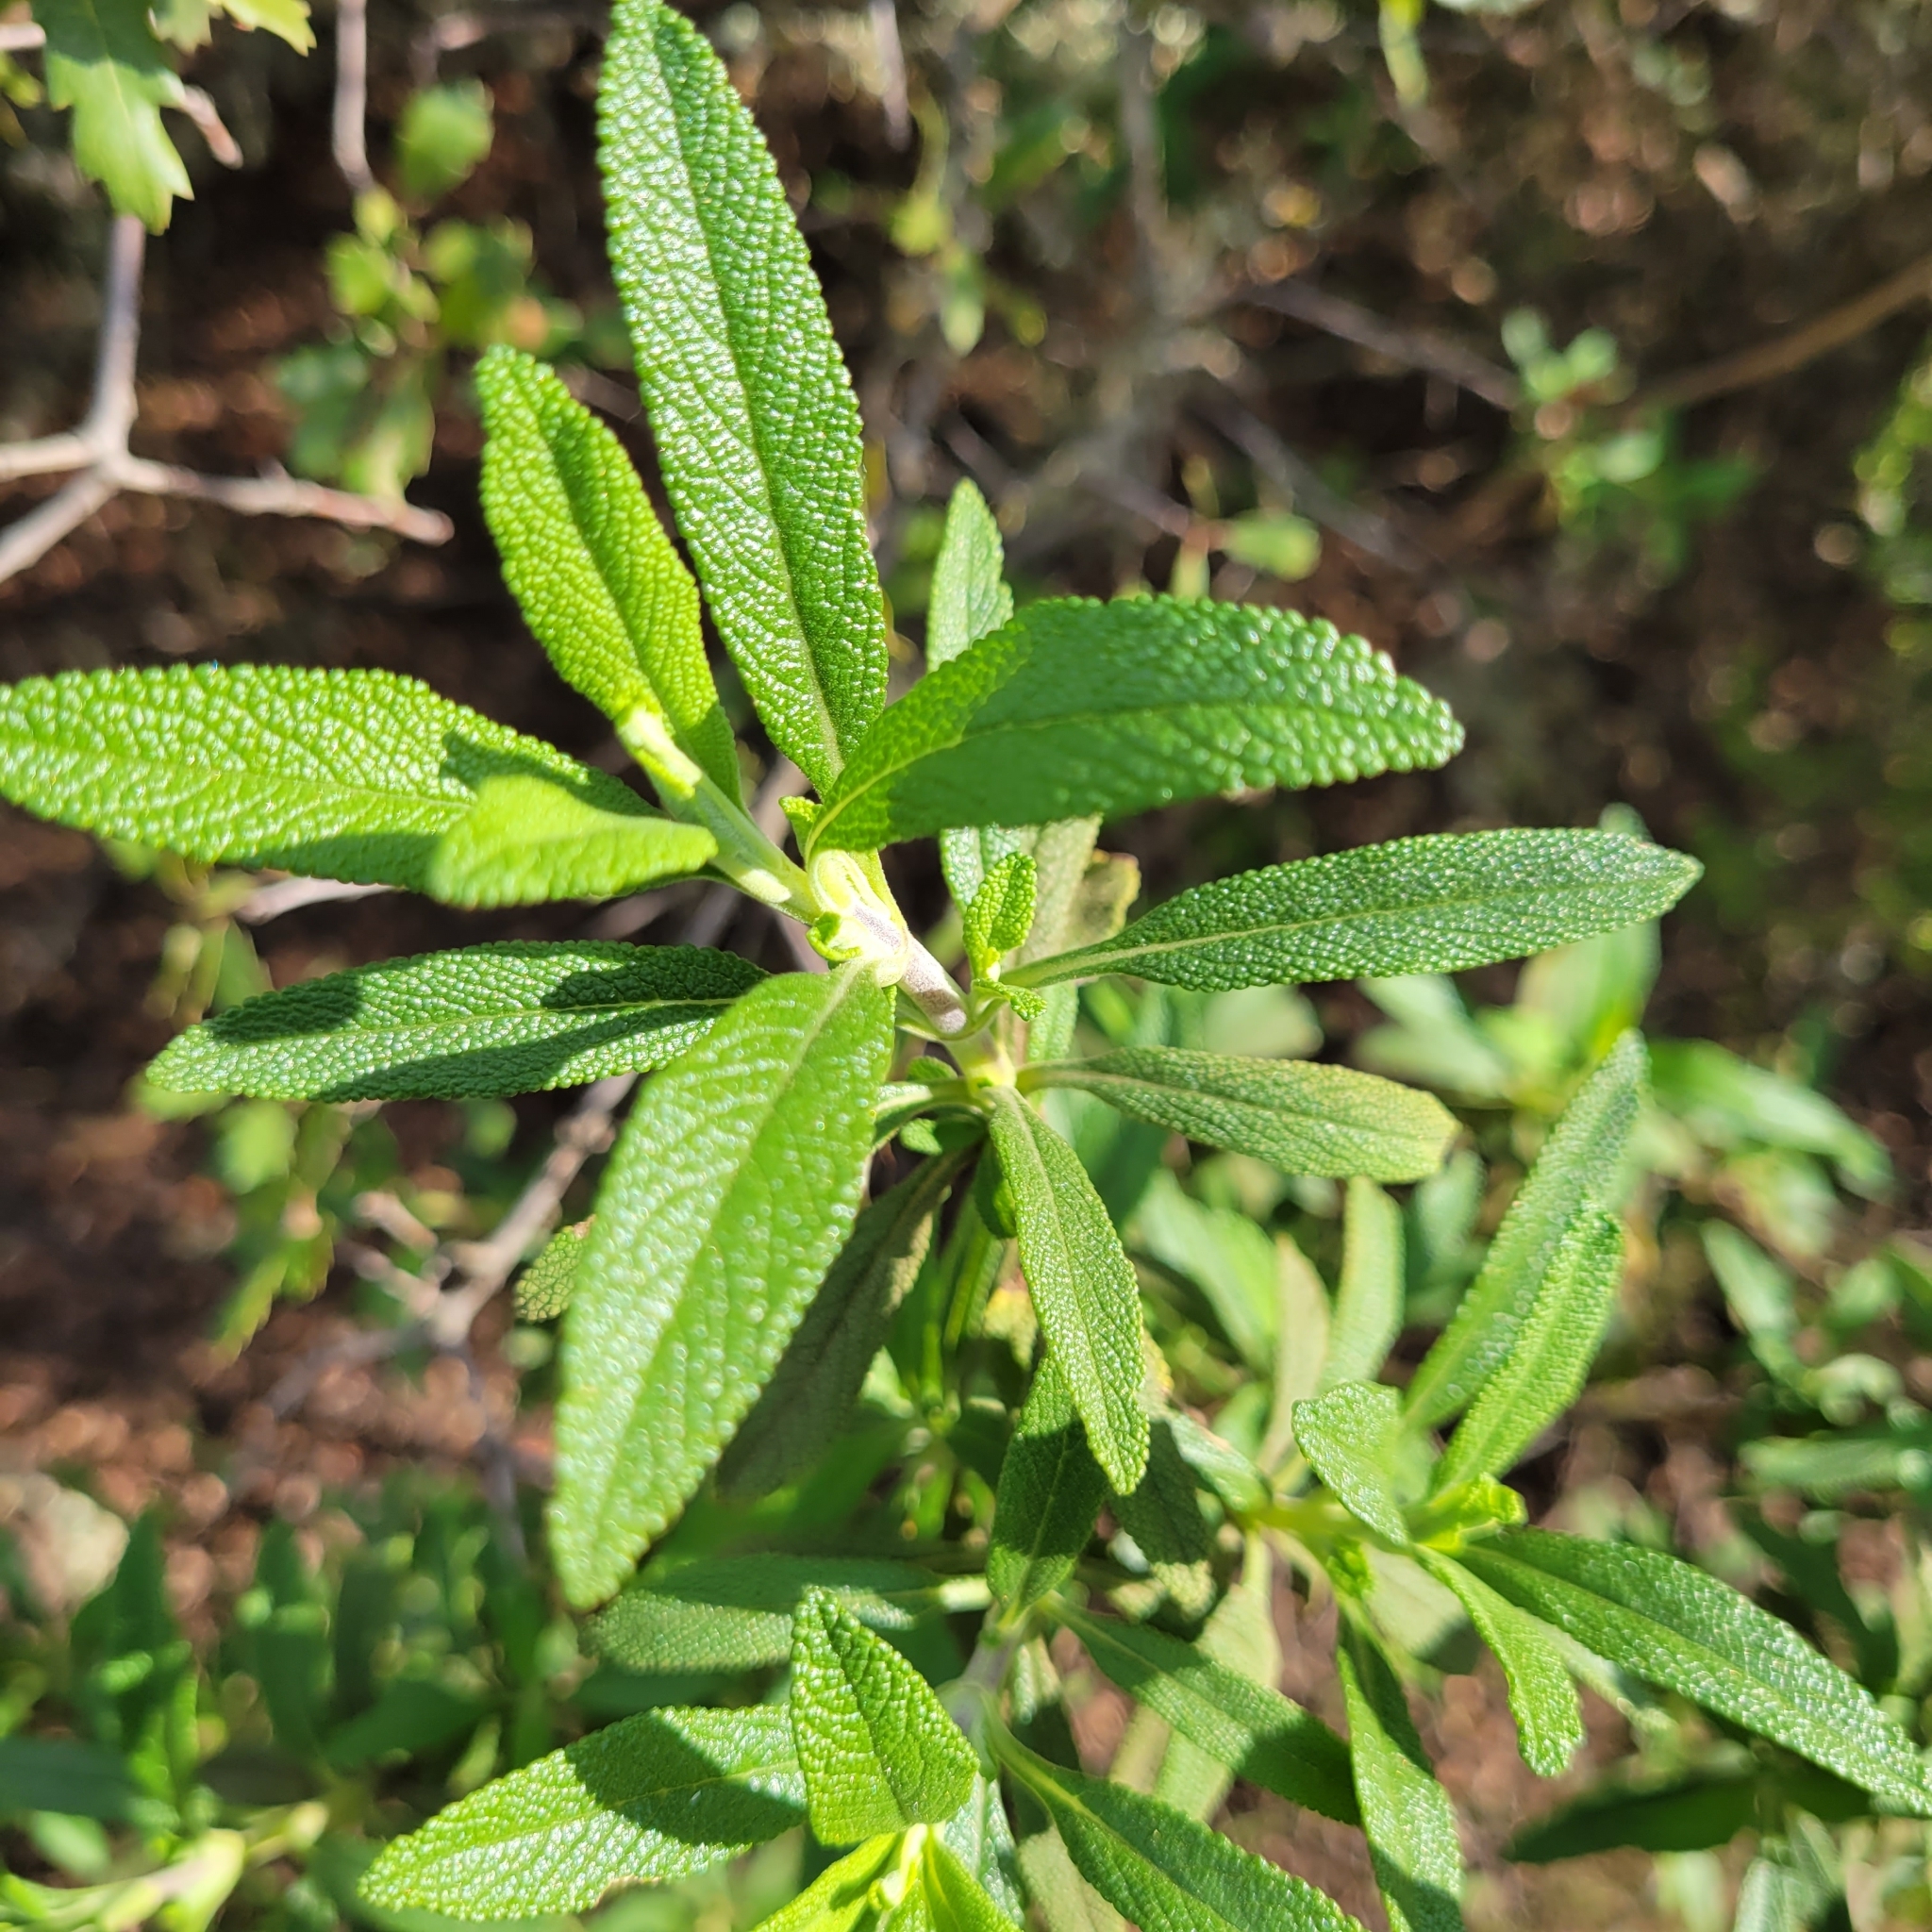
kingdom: Plantae
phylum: Tracheophyta
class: Magnoliopsida
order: Lamiales
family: Lamiaceae
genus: Salvia
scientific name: Salvia mellifera
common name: Black sage
